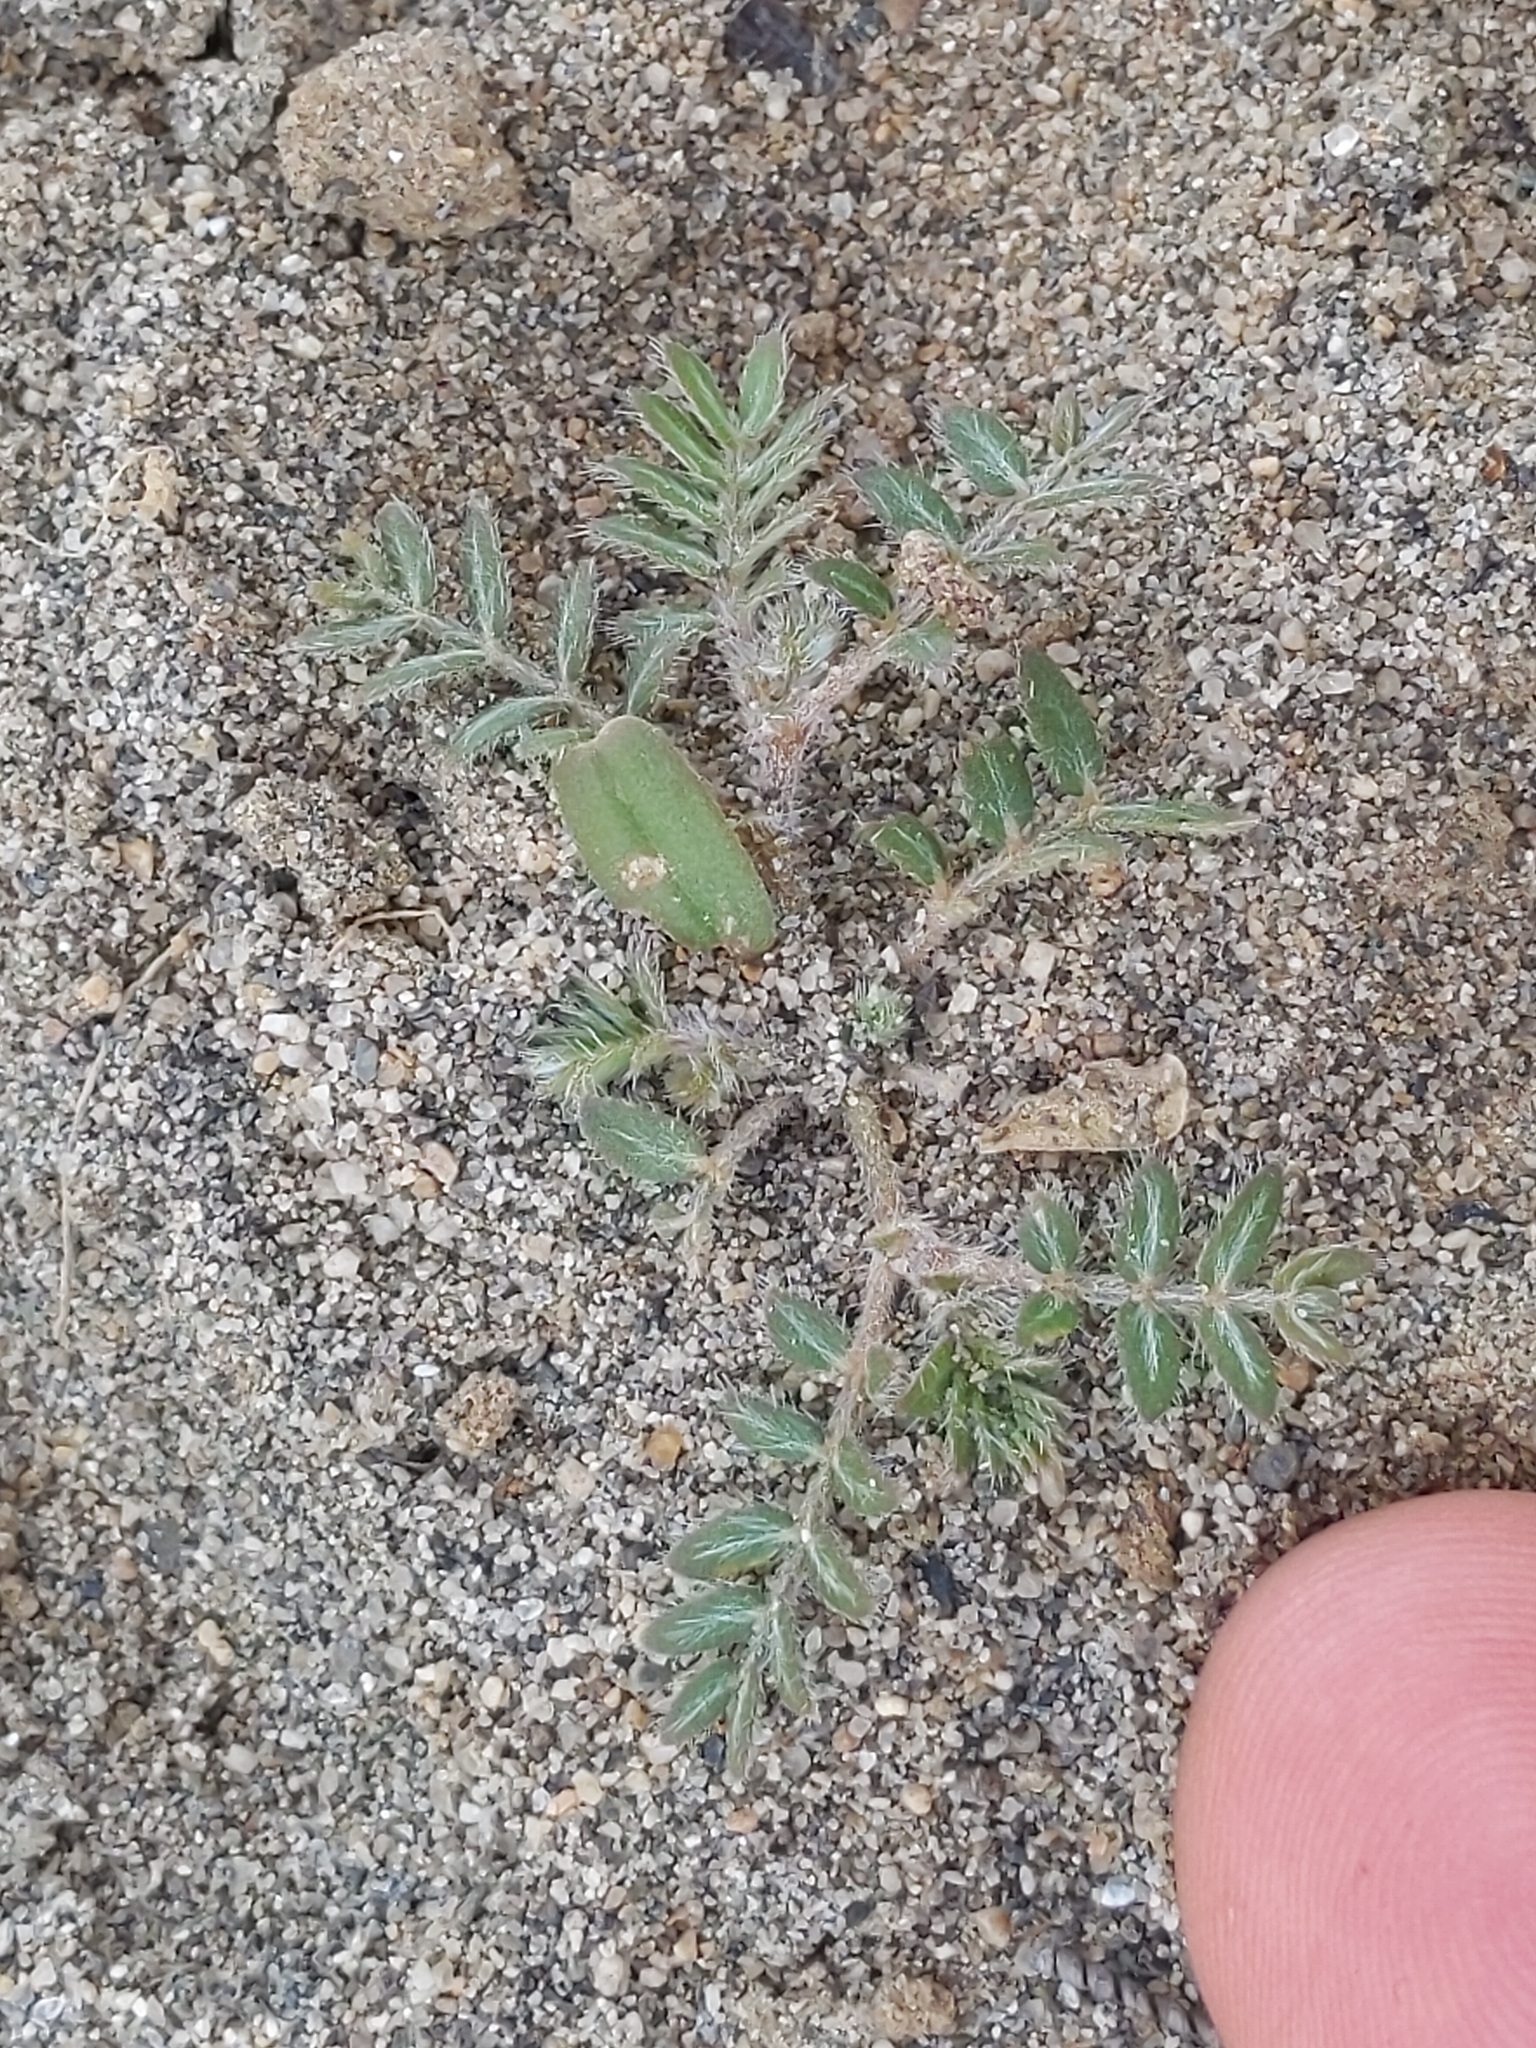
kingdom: Plantae
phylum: Tracheophyta
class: Magnoliopsida
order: Zygophyllales
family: Zygophyllaceae
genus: Tribulus
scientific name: Tribulus terrestris
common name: Puncturevine
